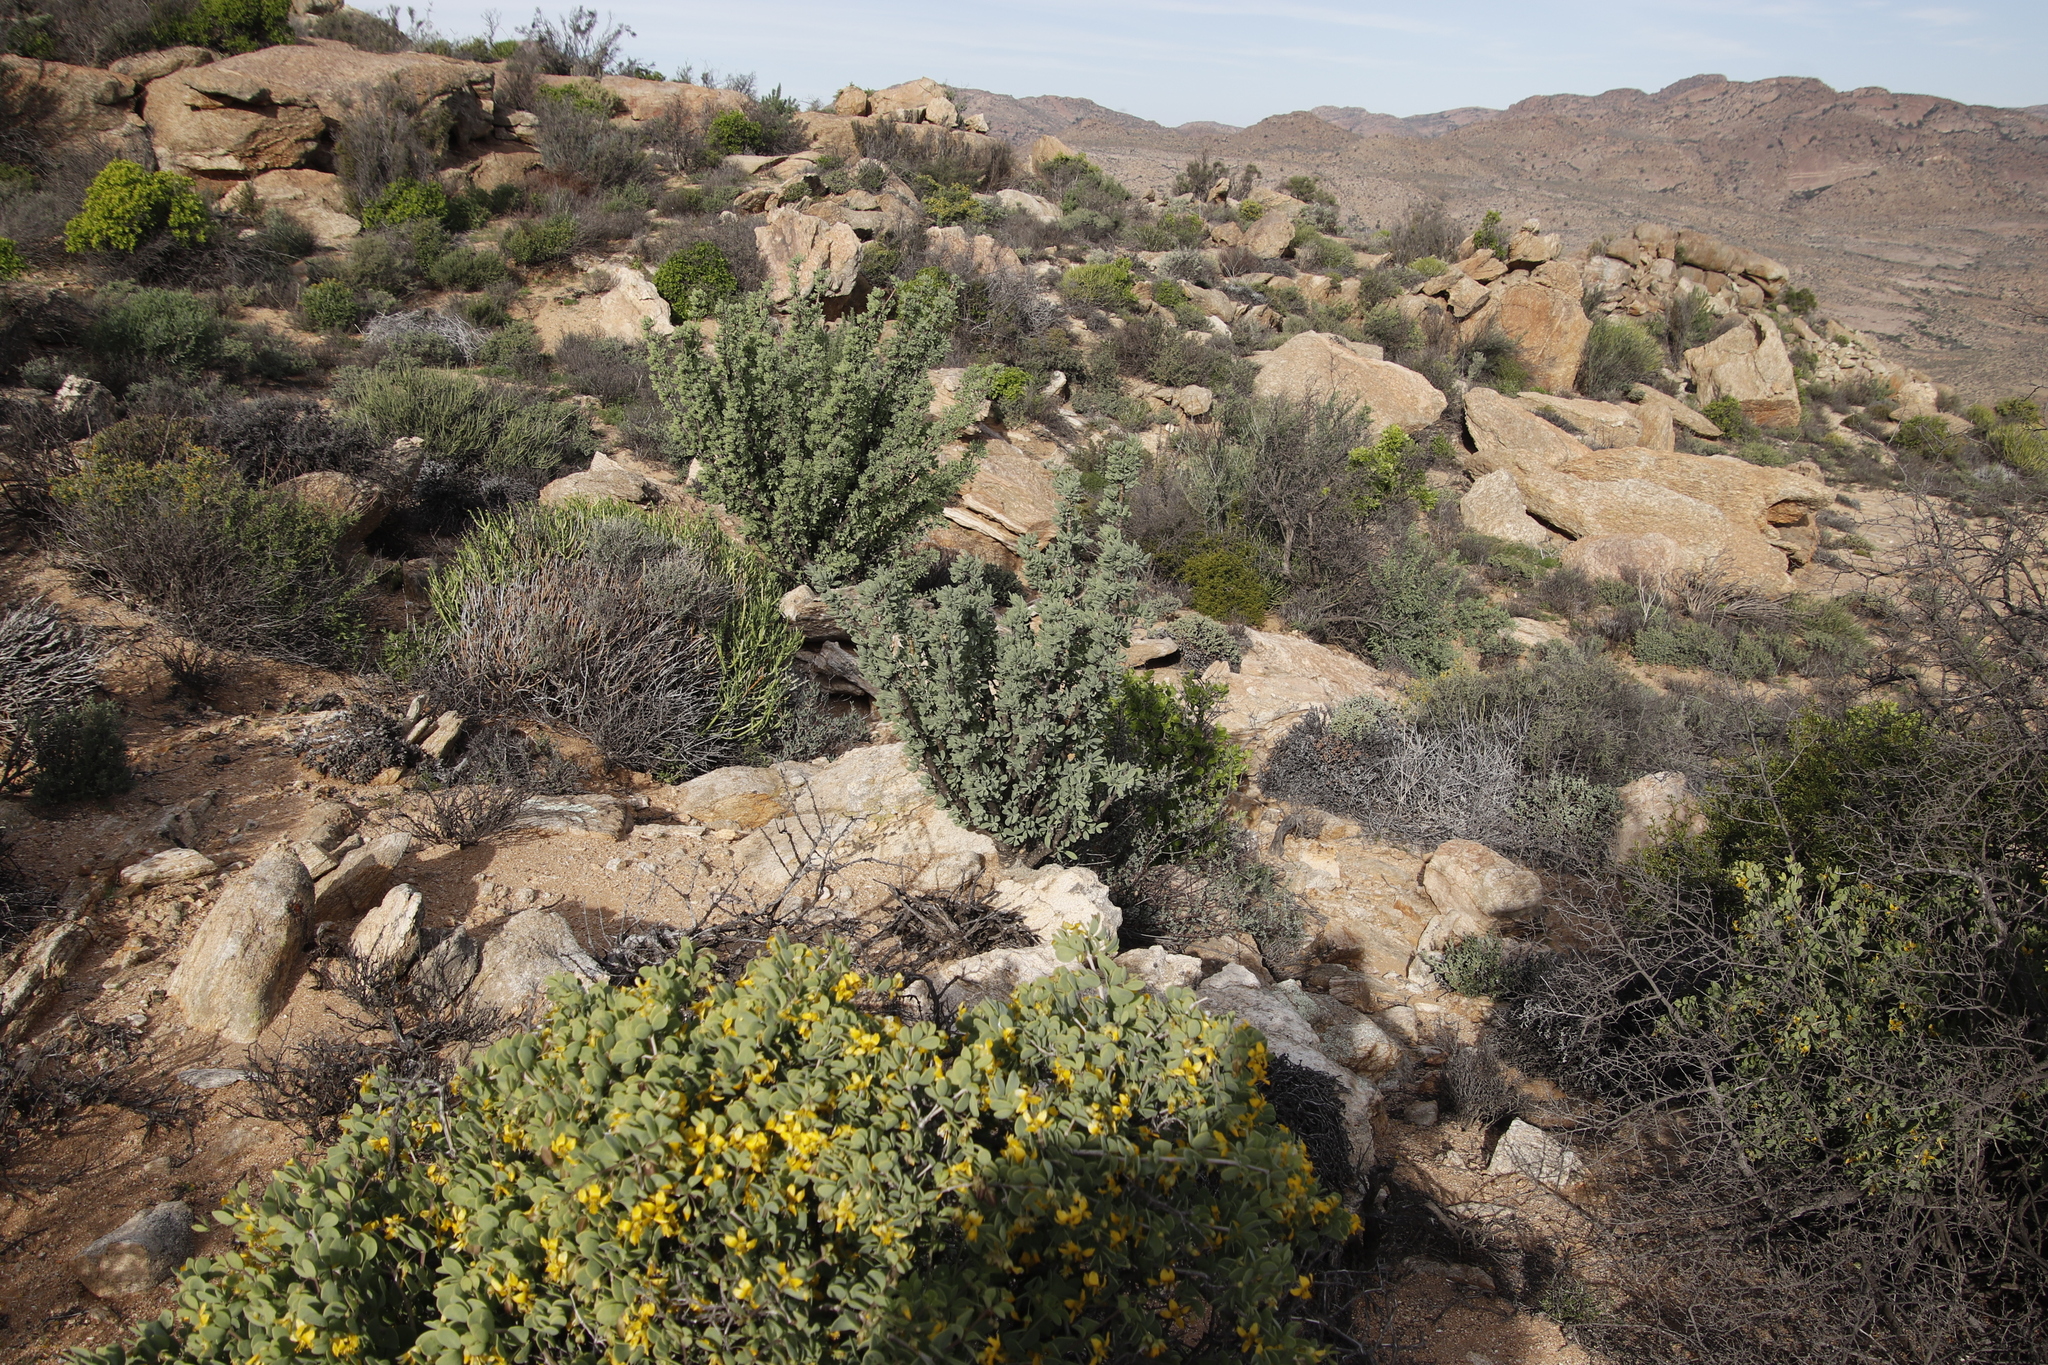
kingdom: Plantae
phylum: Tracheophyta
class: Magnoliopsida
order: Asterales
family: Asteraceae
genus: Othonna
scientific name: Othonna cerarioides
